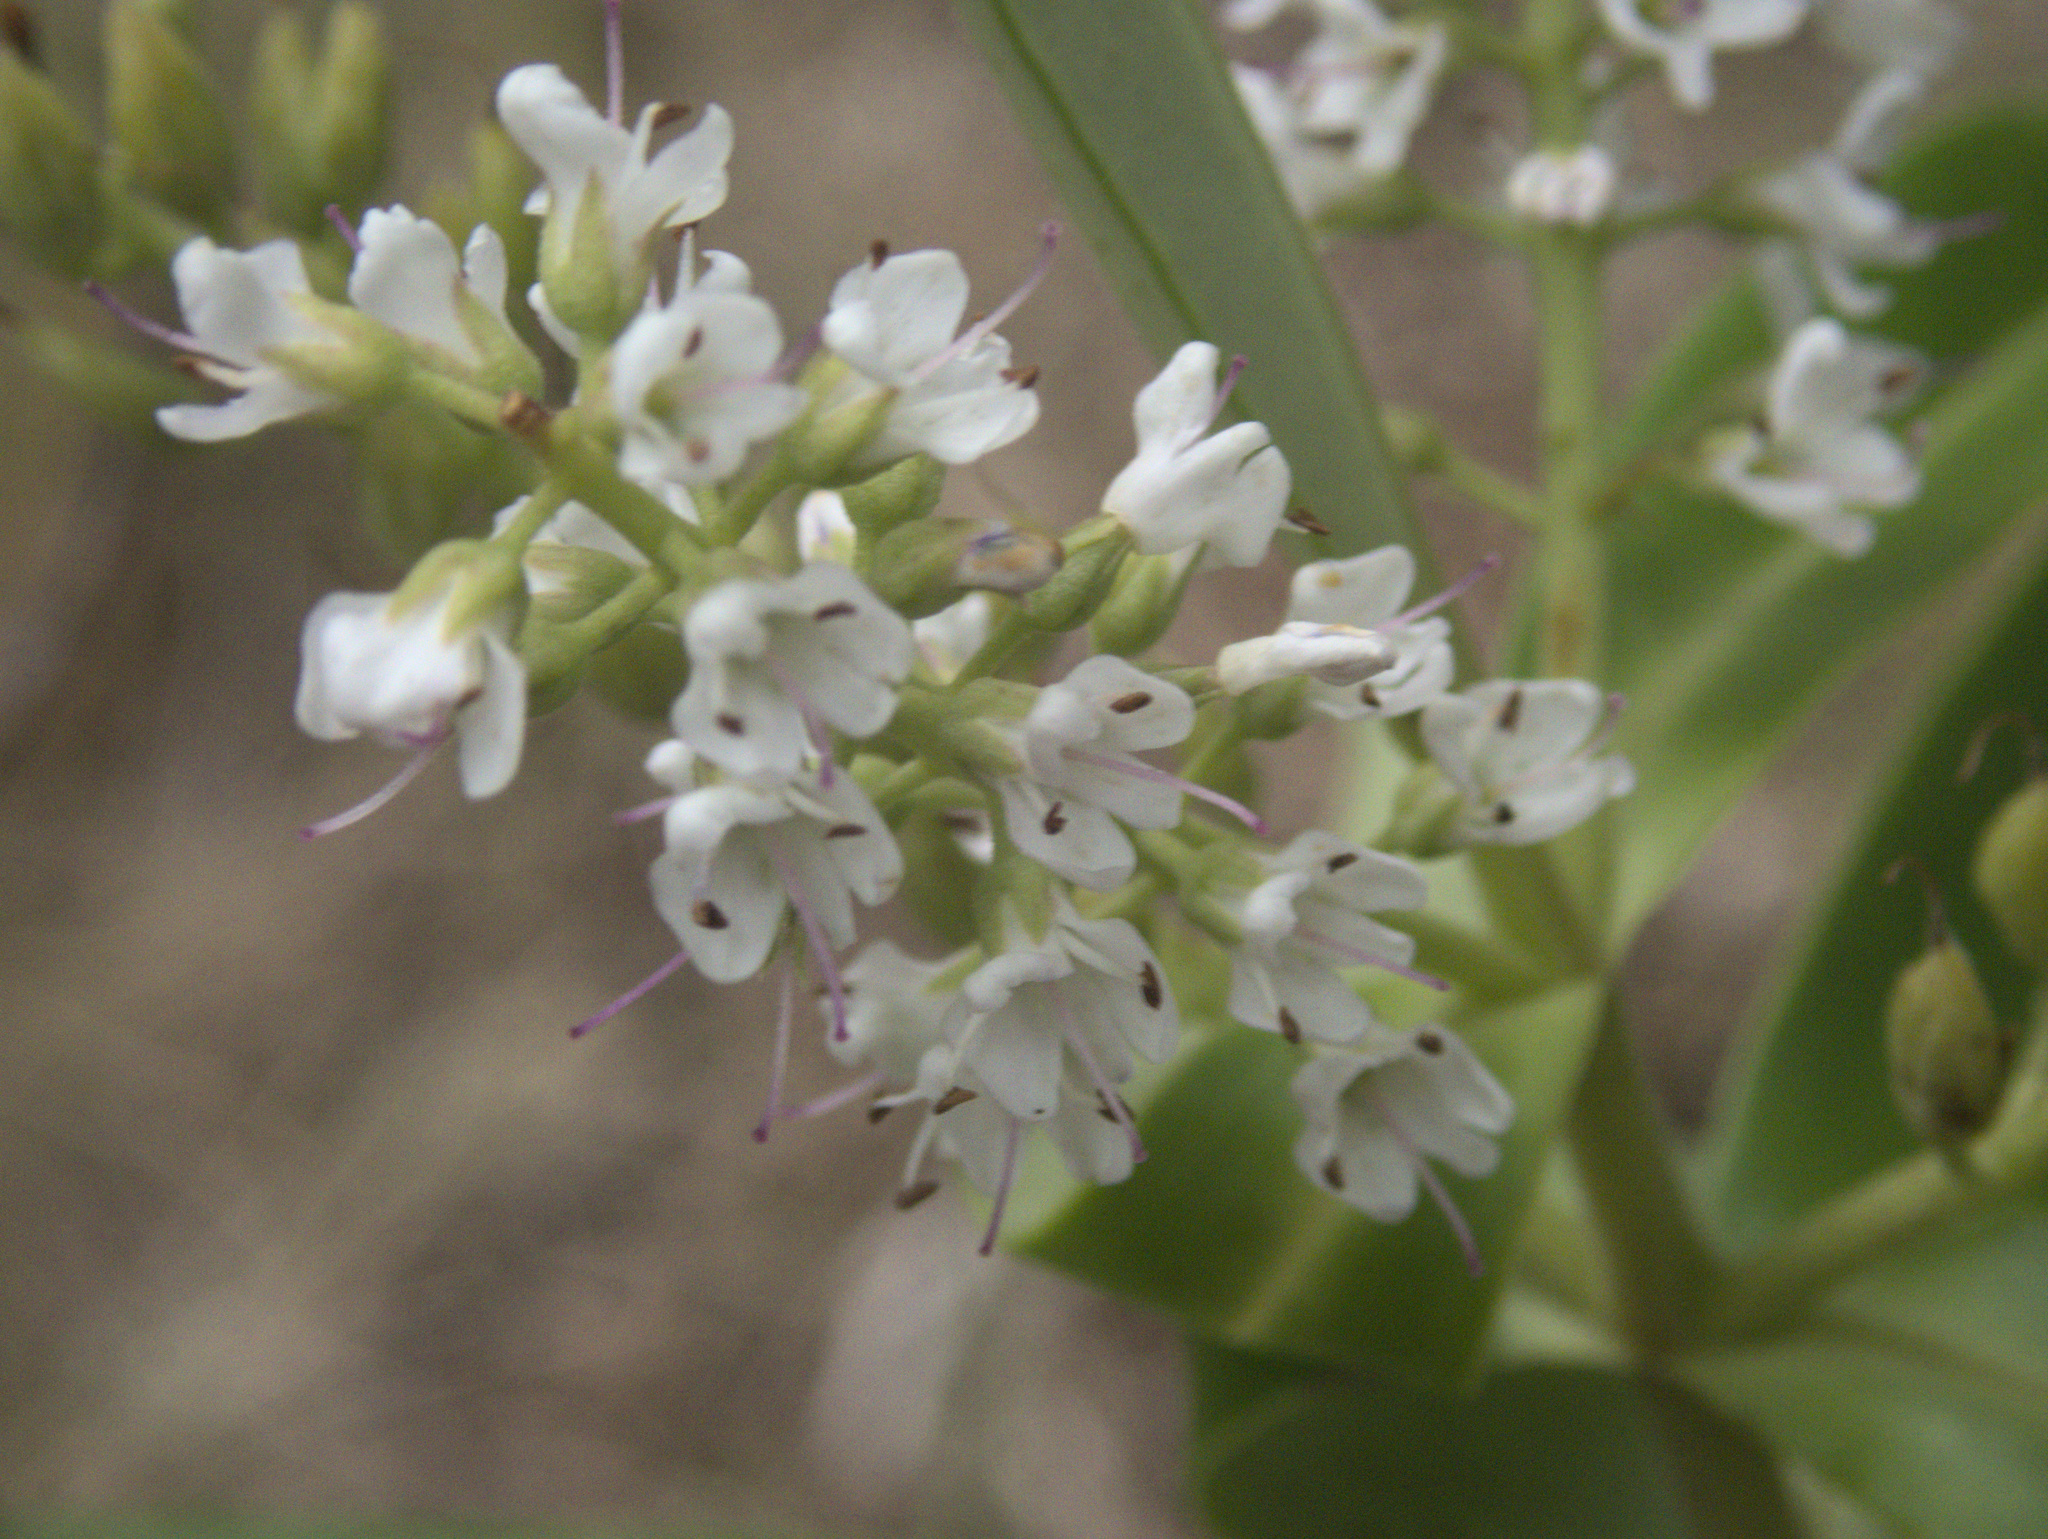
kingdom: Plantae
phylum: Tracheophyta
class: Magnoliopsida
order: Lamiales
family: Plantaginaceae
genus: Veronica
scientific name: Veronica barkeri
